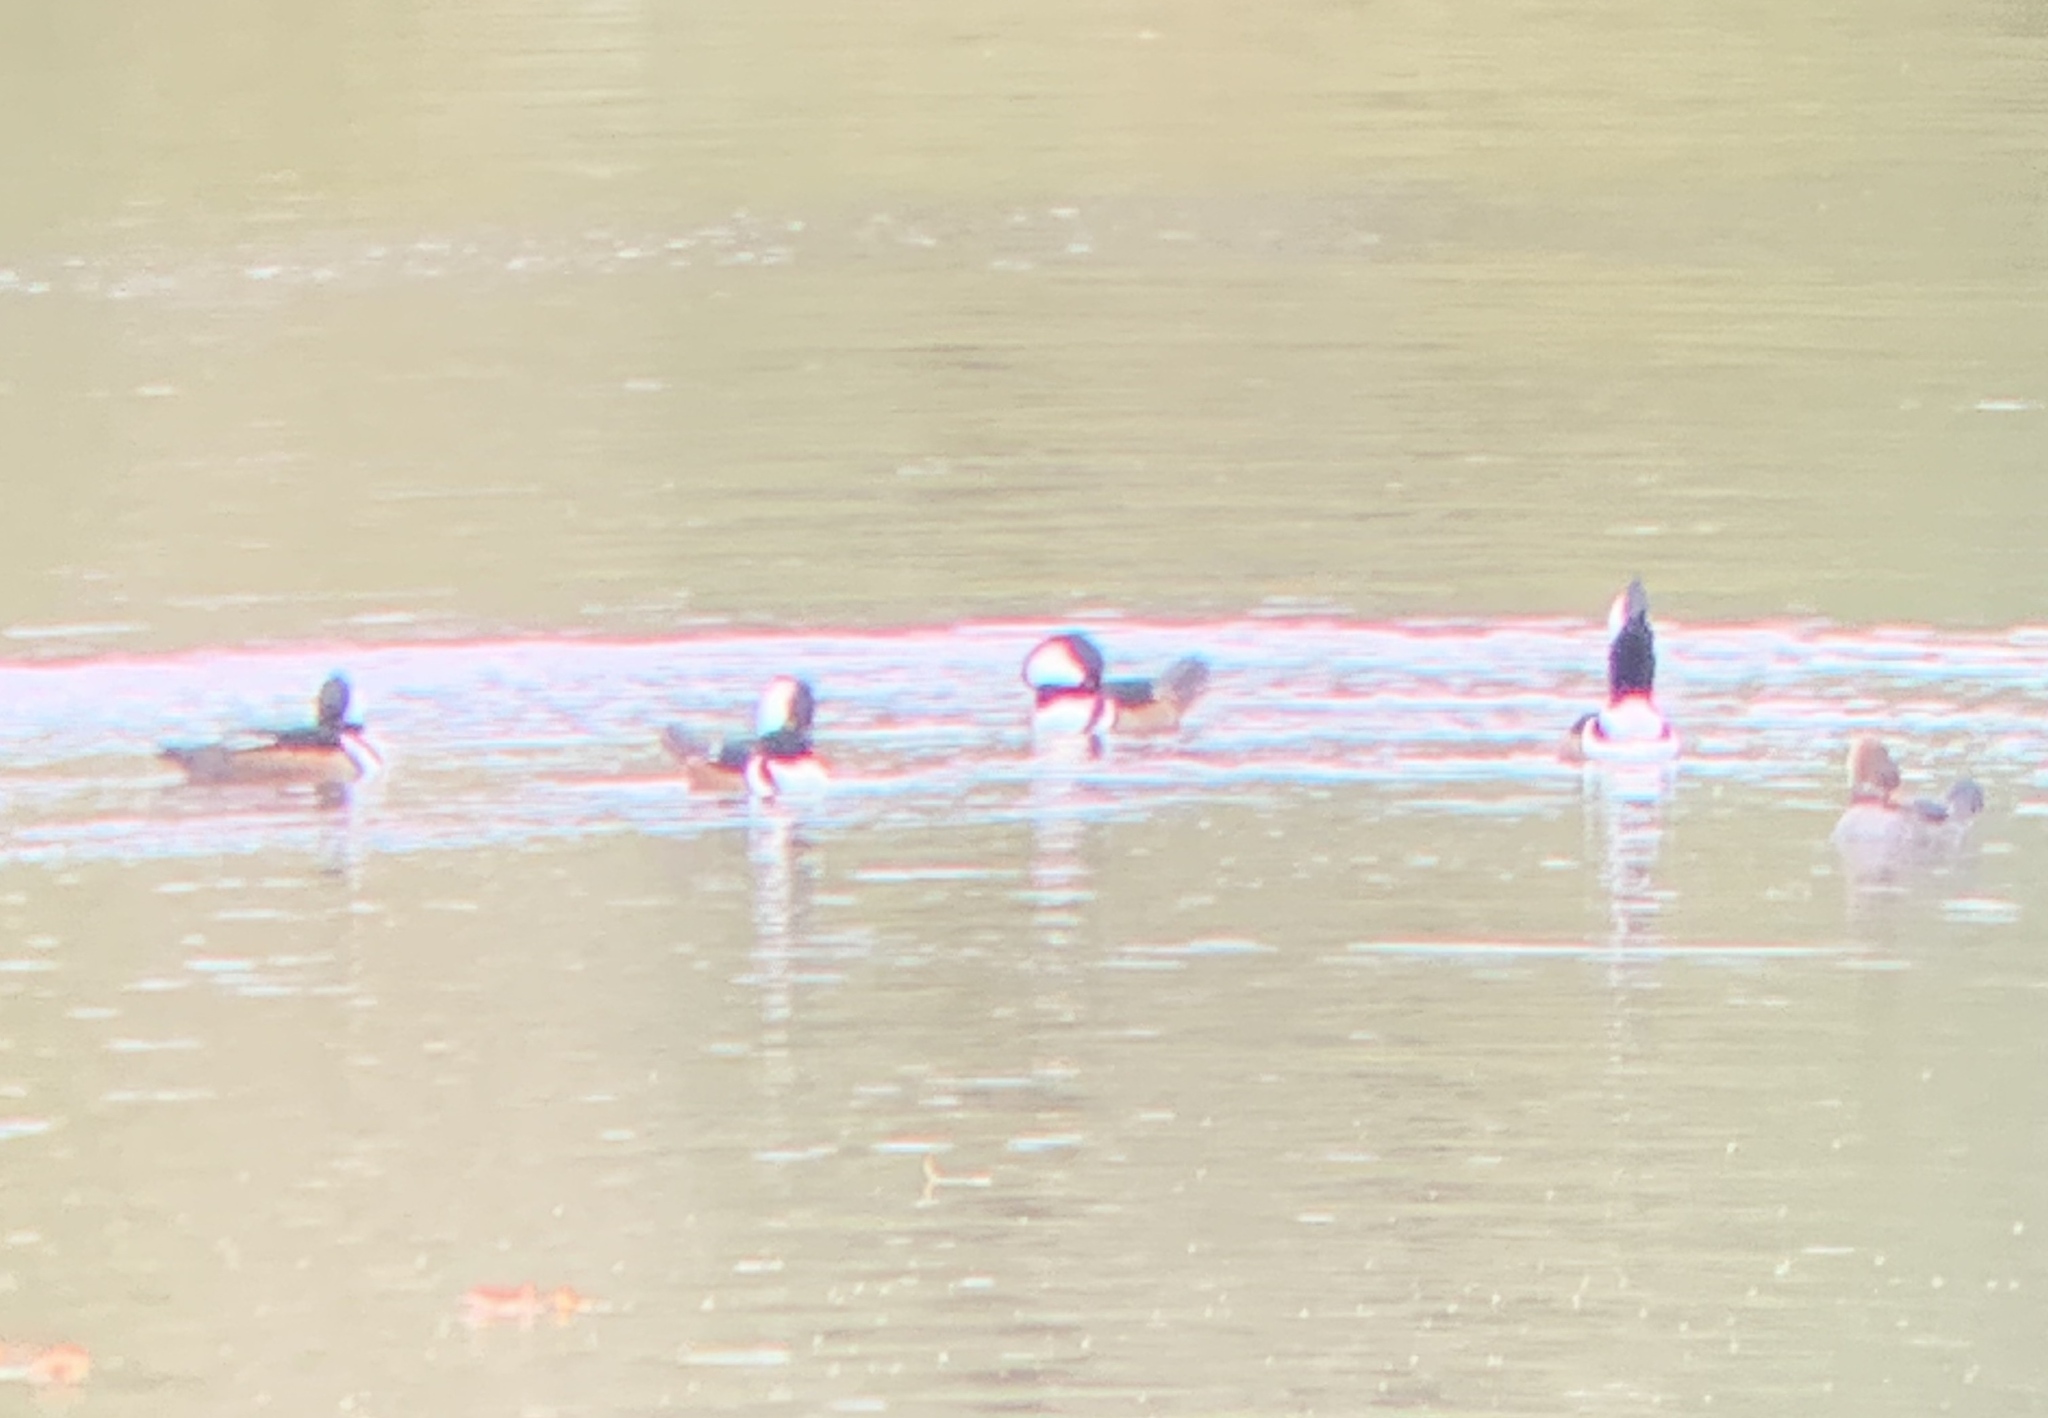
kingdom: Animalia
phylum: Chordata
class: Aves
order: Anseriformes
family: Anatidae
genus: Lophodytes
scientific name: Lophodytes cucullatus
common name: Hooded merganser
